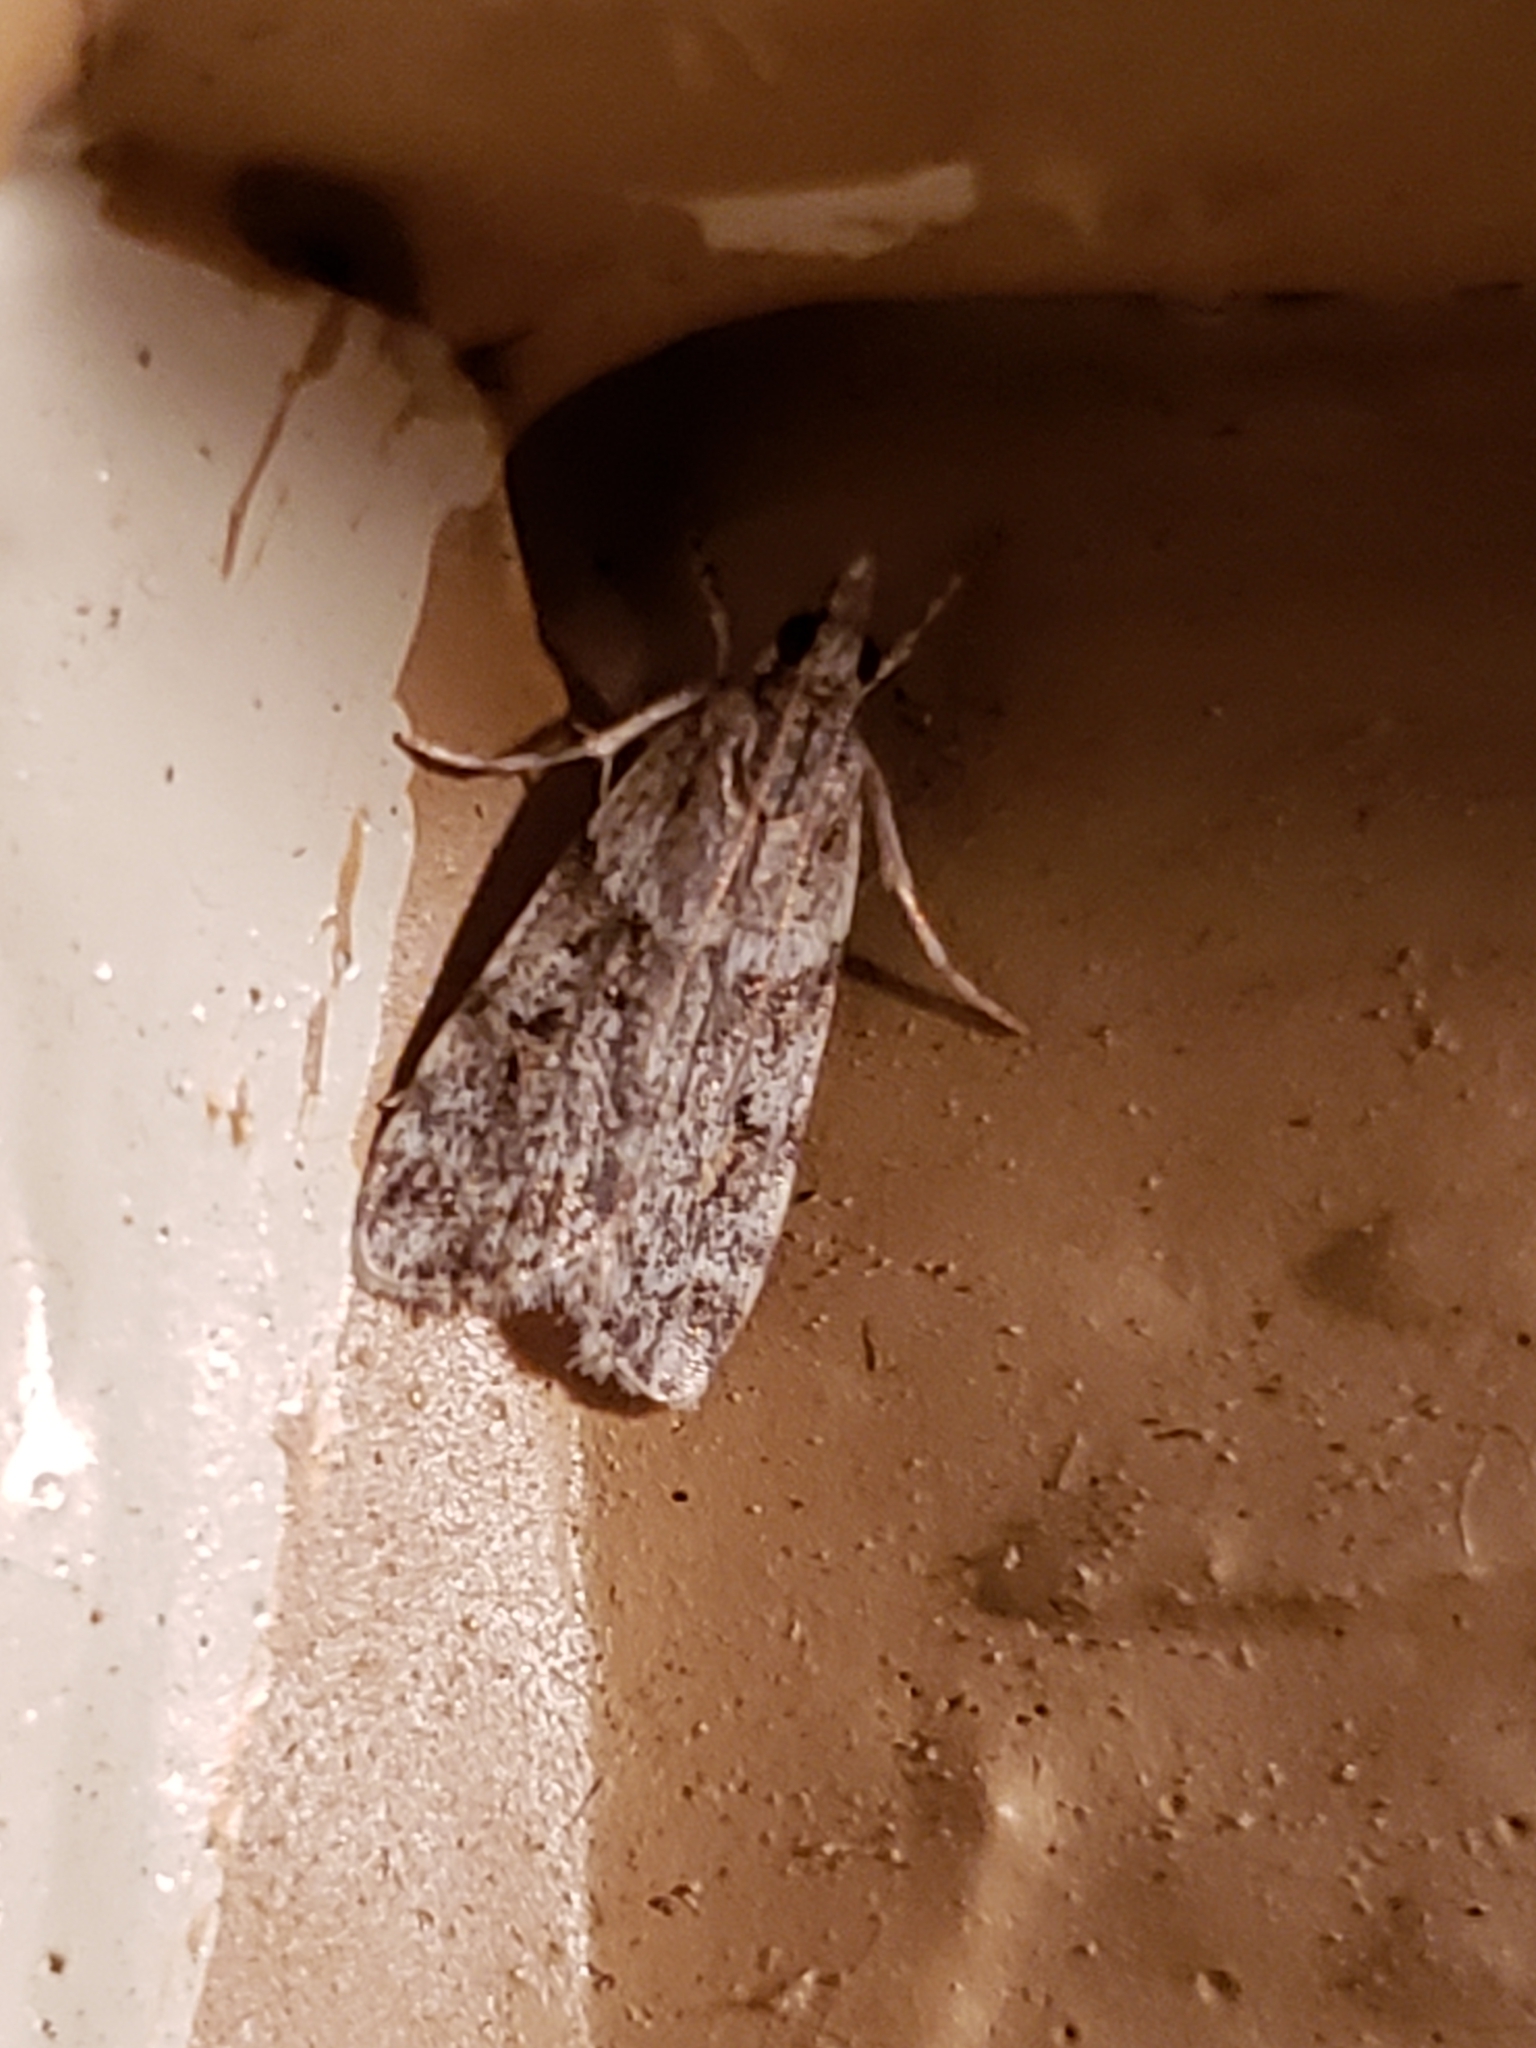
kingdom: Animalia
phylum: Arthropoda
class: Insecta
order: Lepidoptera
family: Crambidae
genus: Scoparia
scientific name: Scoparia biplagialis
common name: Double-striped scoparia moth
